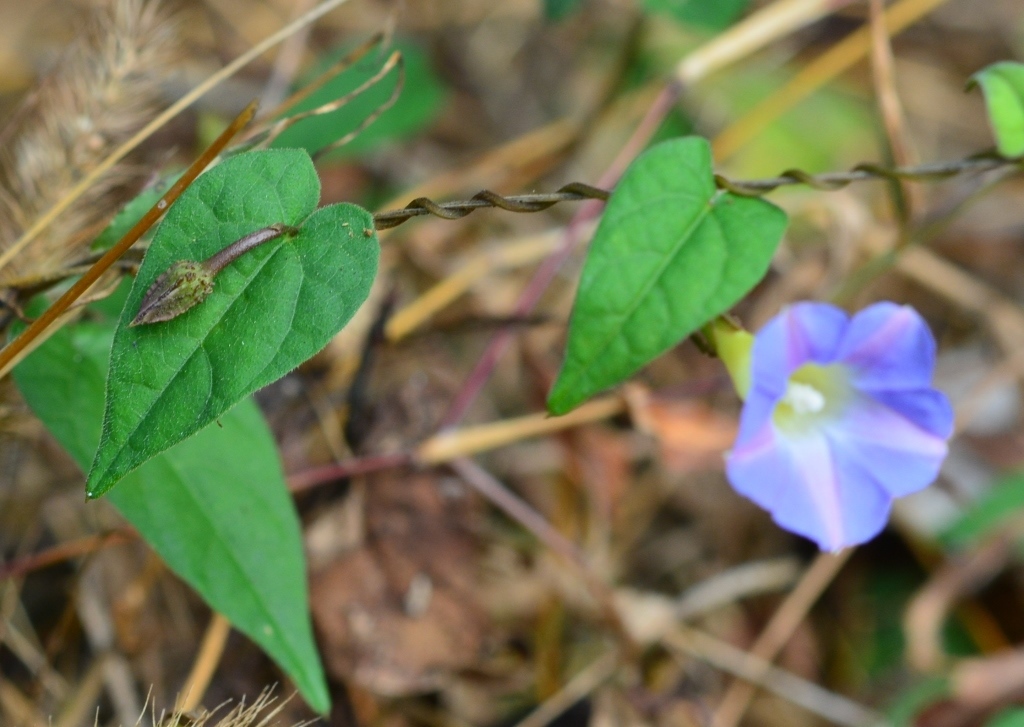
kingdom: Plantae
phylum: Tracheophyta
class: Magnoliopsida
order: Solanales
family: Convolvulaceae
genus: Ipomoea
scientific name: Ipomoea aristolochiifolia
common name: Aristolochia-leaved morning-glory
